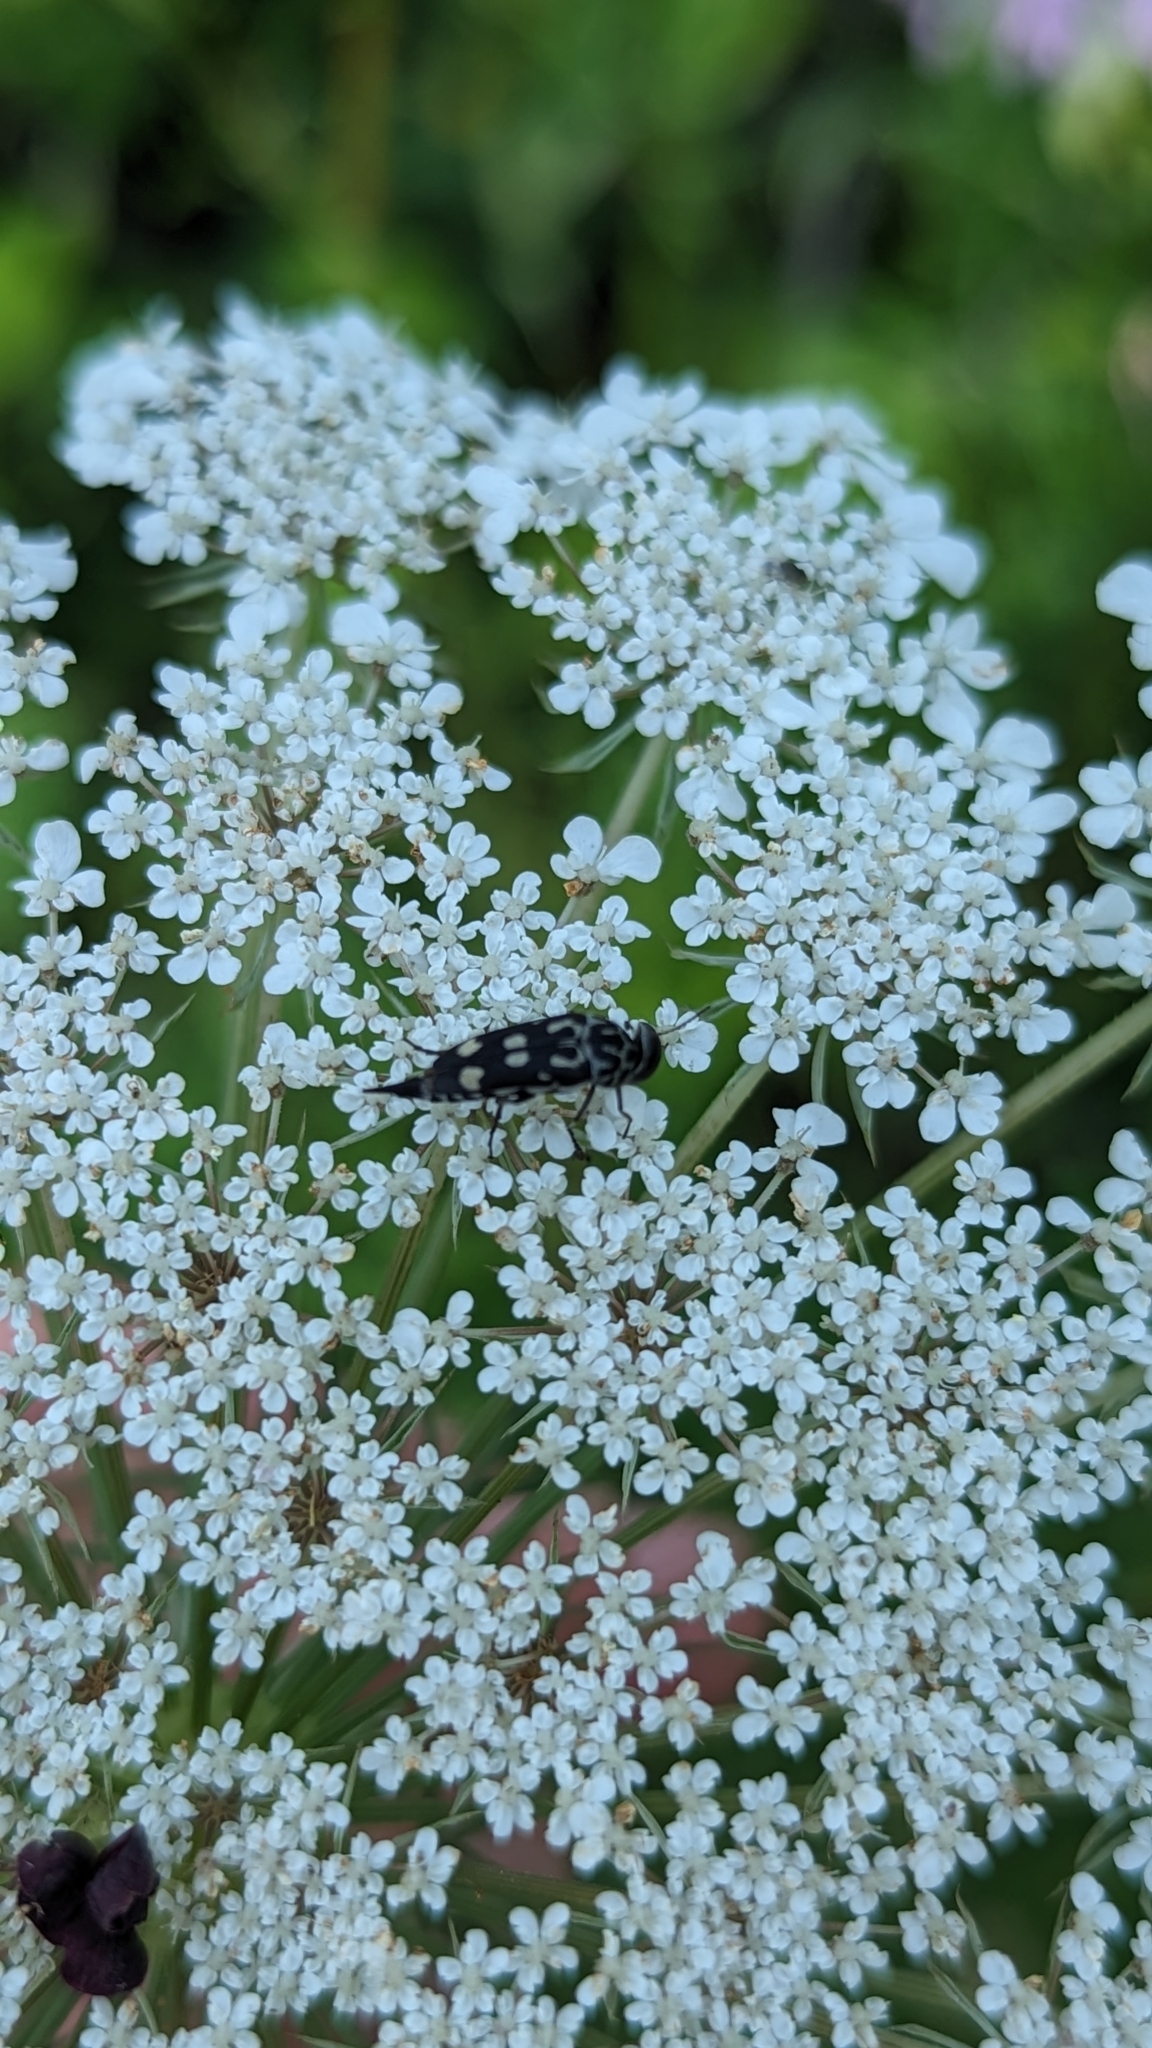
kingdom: Animalia
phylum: Arthropoda
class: Insecta
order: Coleoptera
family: Mordellidae
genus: Hoshihananomia
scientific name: Hoshihananomia octopunctata
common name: Eight-spotted tumbling flower beetle
